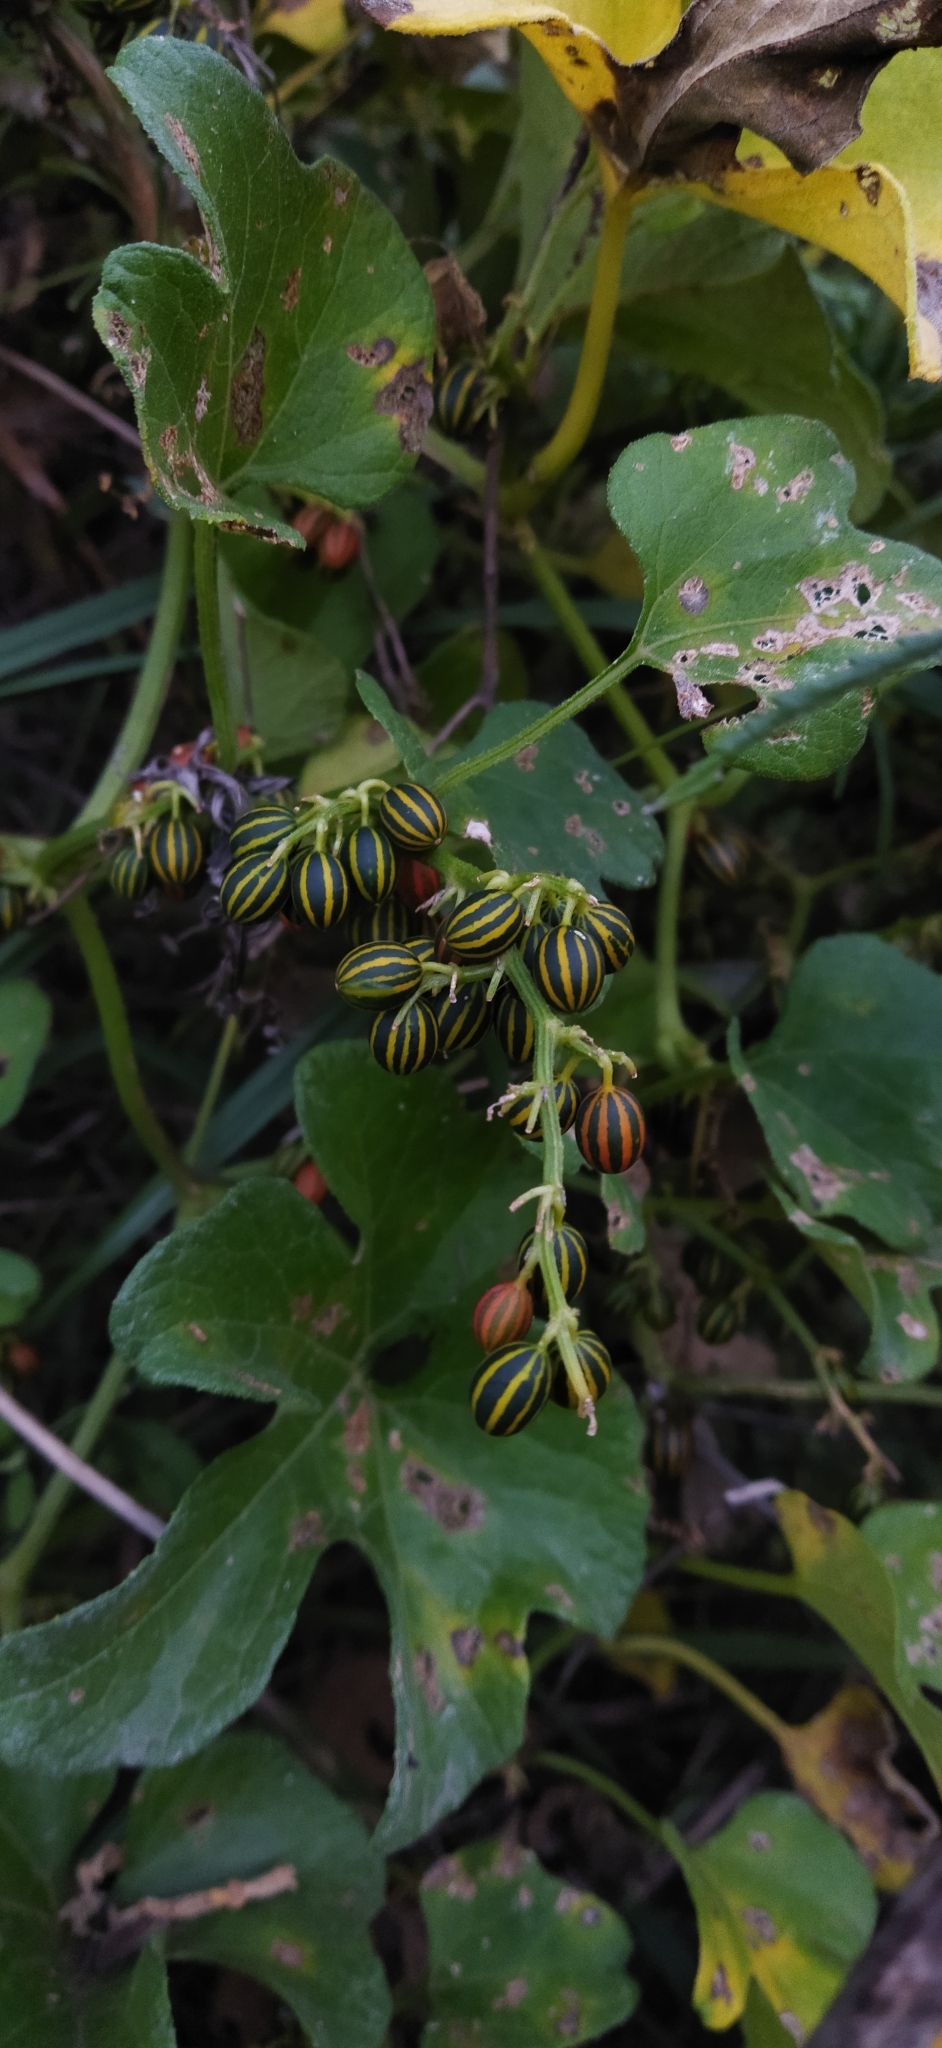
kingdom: Plantae
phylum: Tracheophyta
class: Magnoliopsida
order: Cucurbitales
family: Cucurbitaceae
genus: Cayaponia
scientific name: Cayaponia martiana
